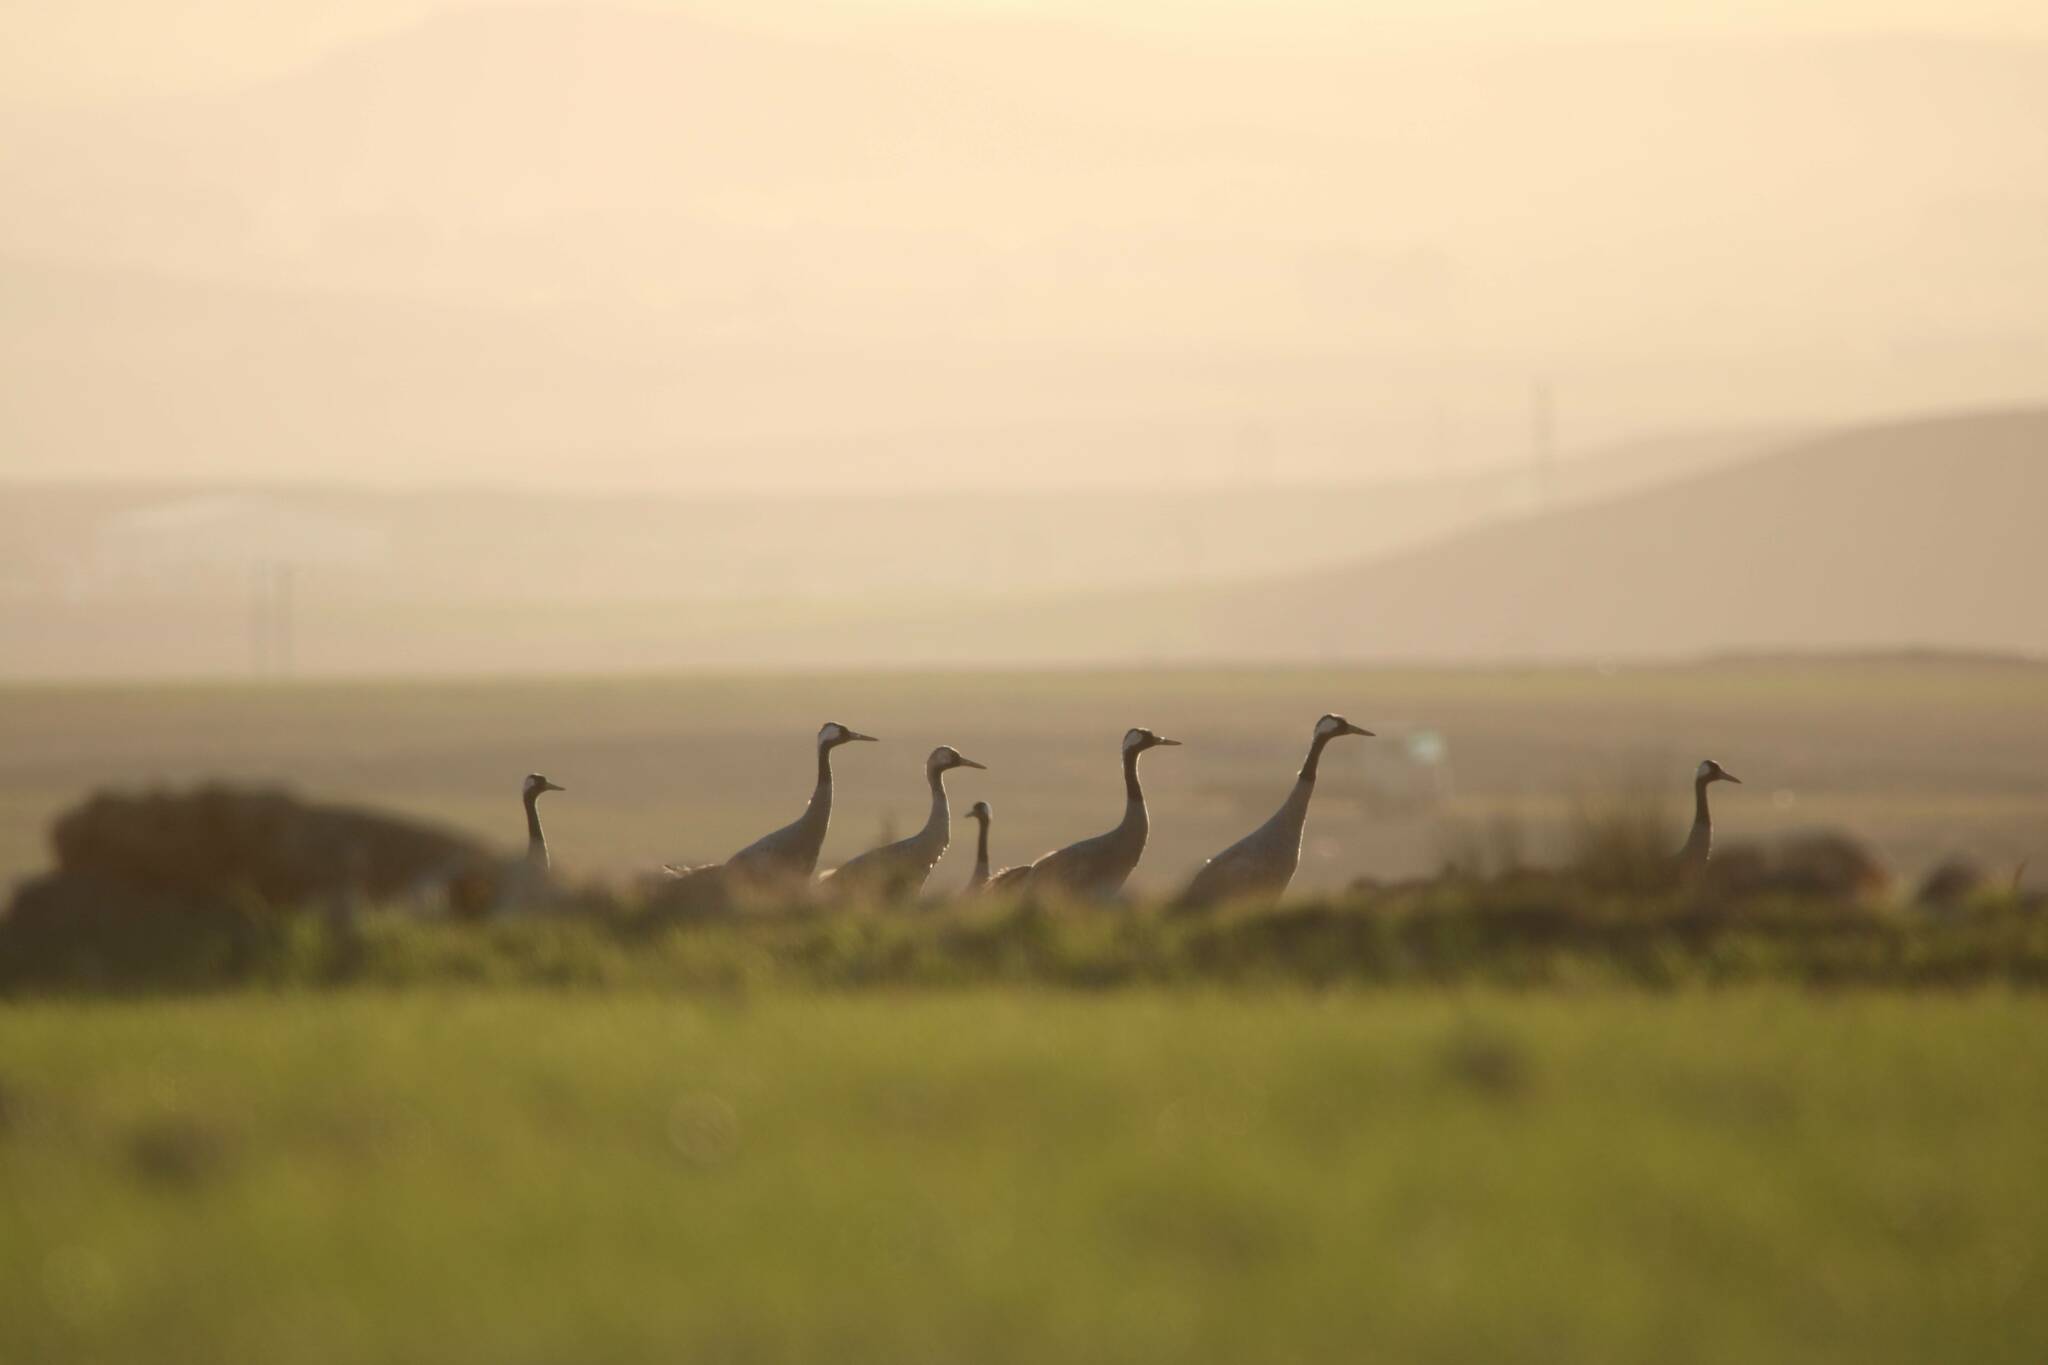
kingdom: Animalia
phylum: Chordata
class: Aves
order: Gruiformes
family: Gruidae
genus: Grus
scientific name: Grus grus
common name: Common crane
